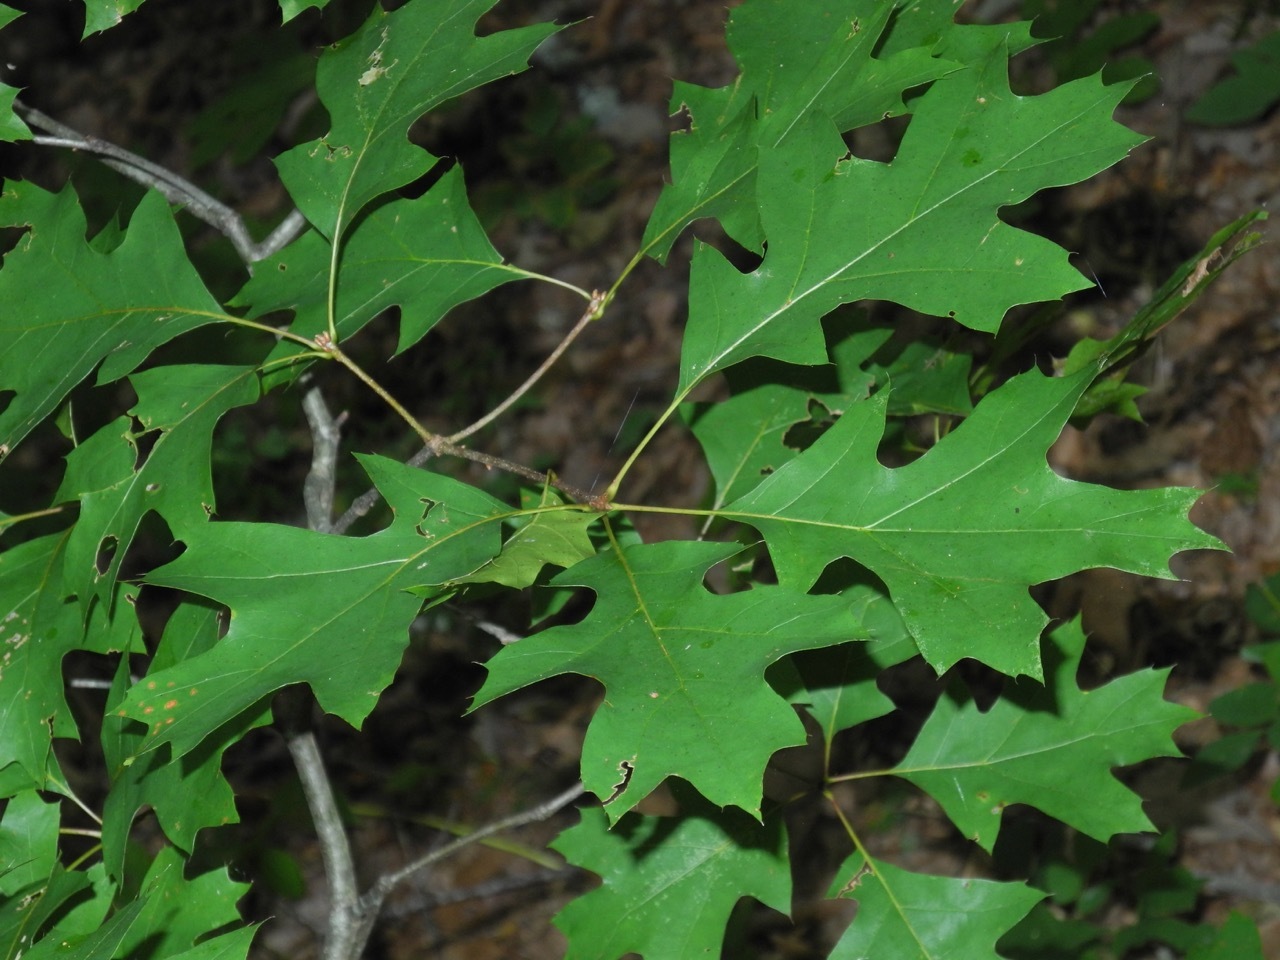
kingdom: Plantae
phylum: Tracheophyta
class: Magnoliopsida
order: Fagales
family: Fagaceae
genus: Quercus
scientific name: Quercus rubra
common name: Red oak
